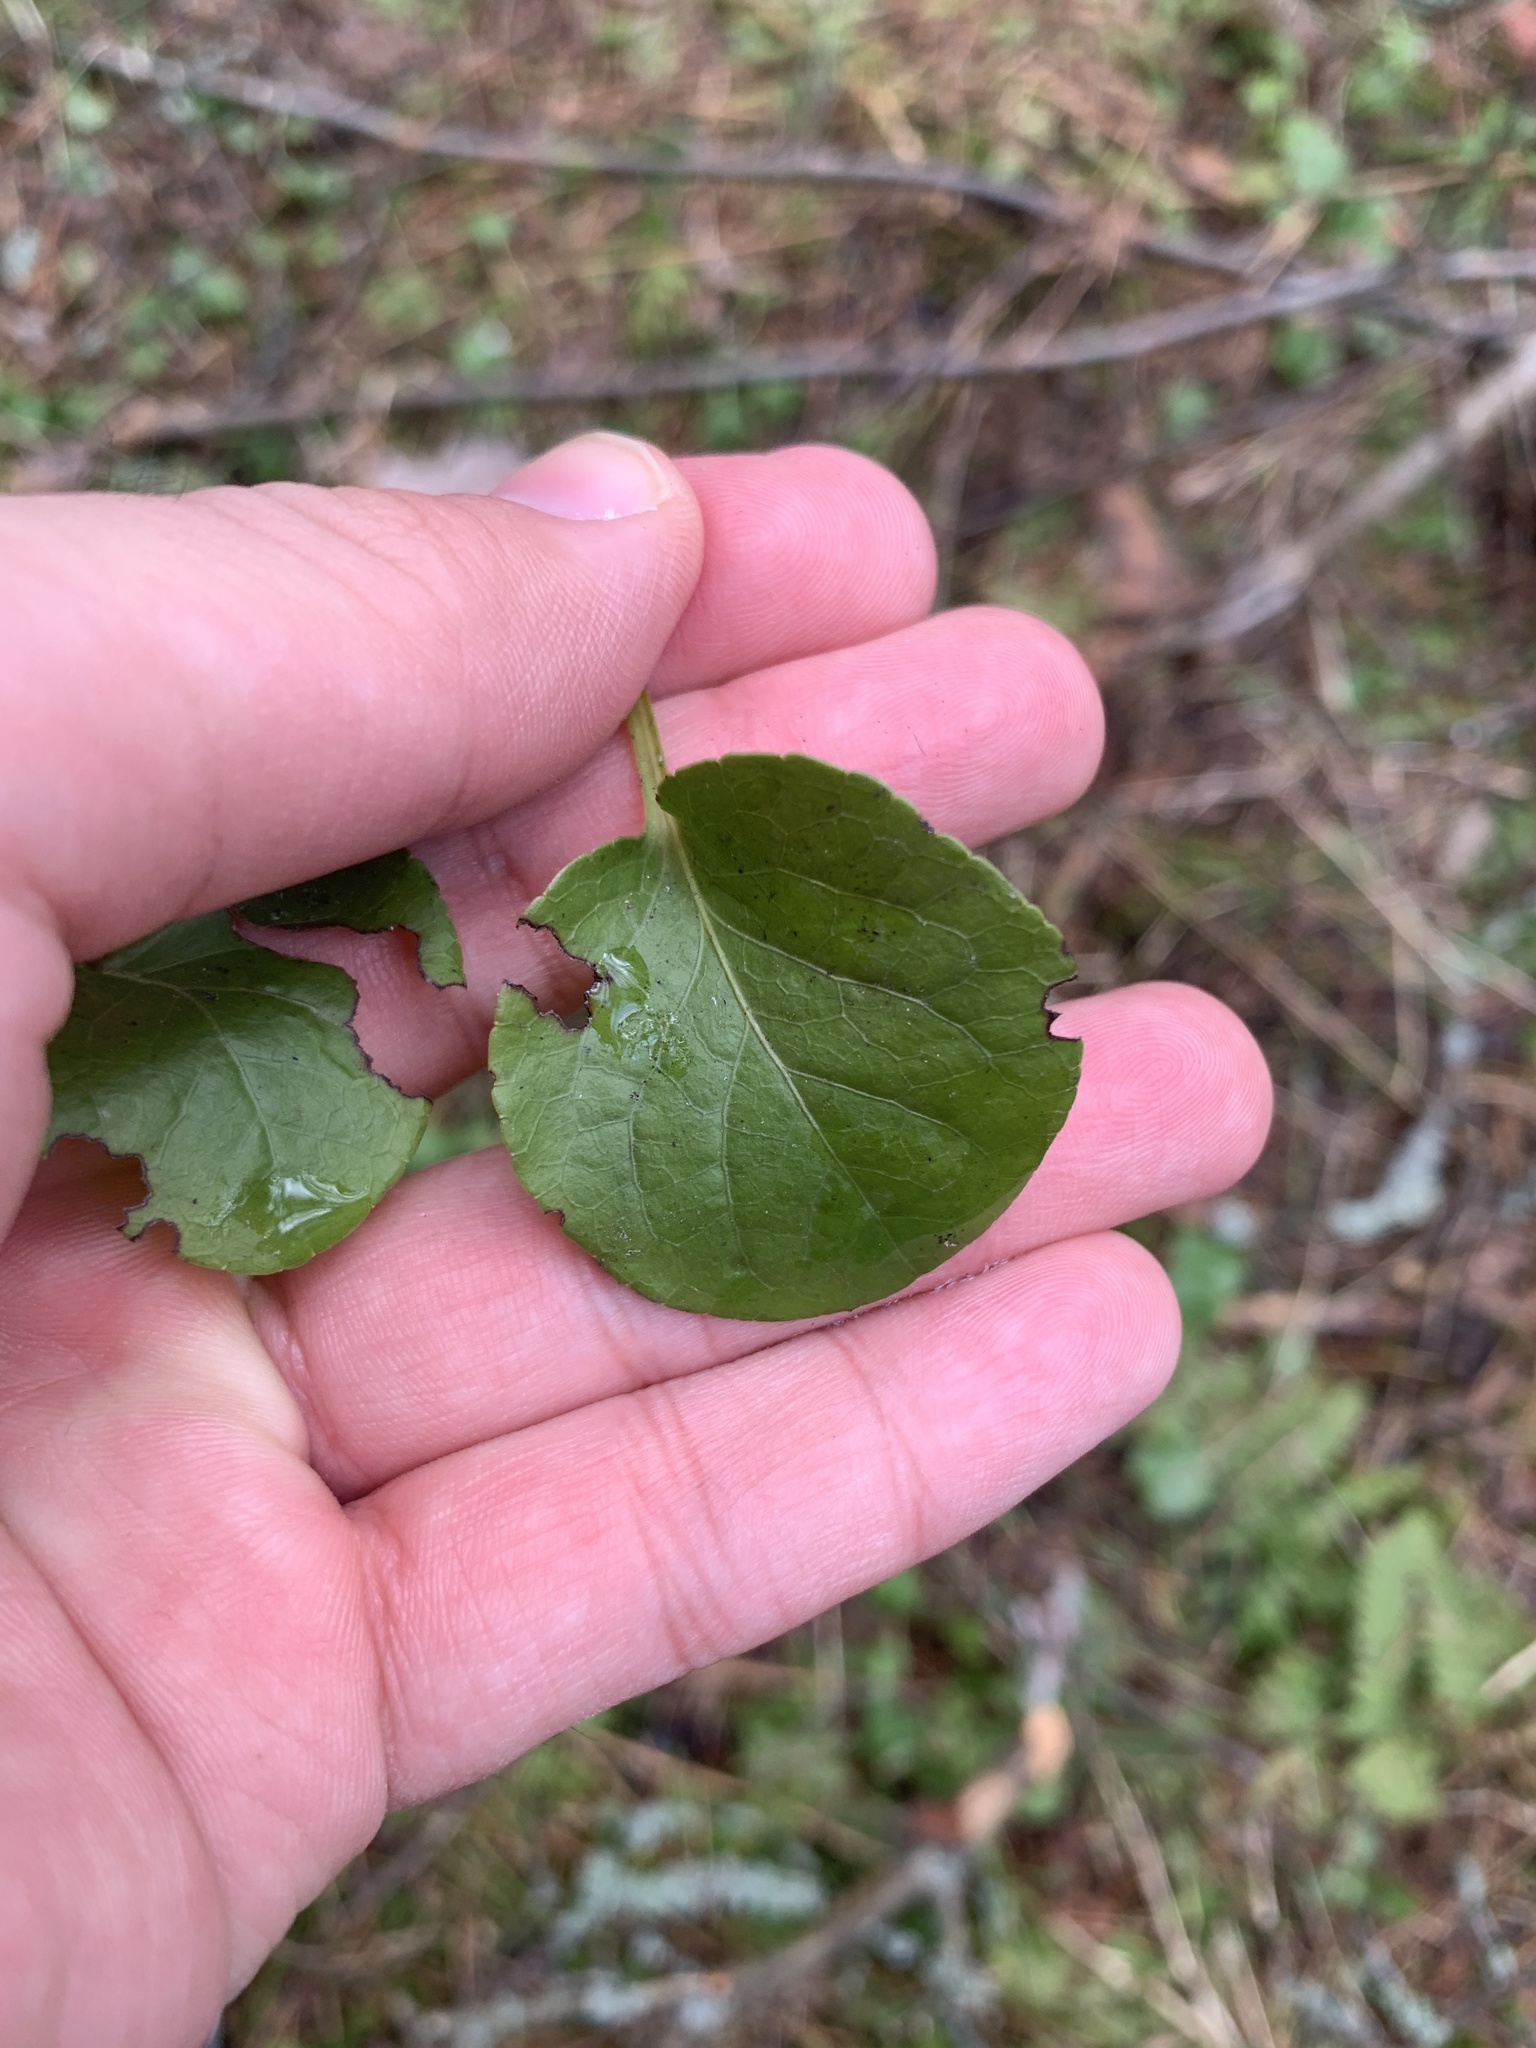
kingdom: Plantae
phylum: Tracheophyta
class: Magnoliopsida
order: Ericales
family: Ericaceae
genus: Pyrola
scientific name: Pyrola
